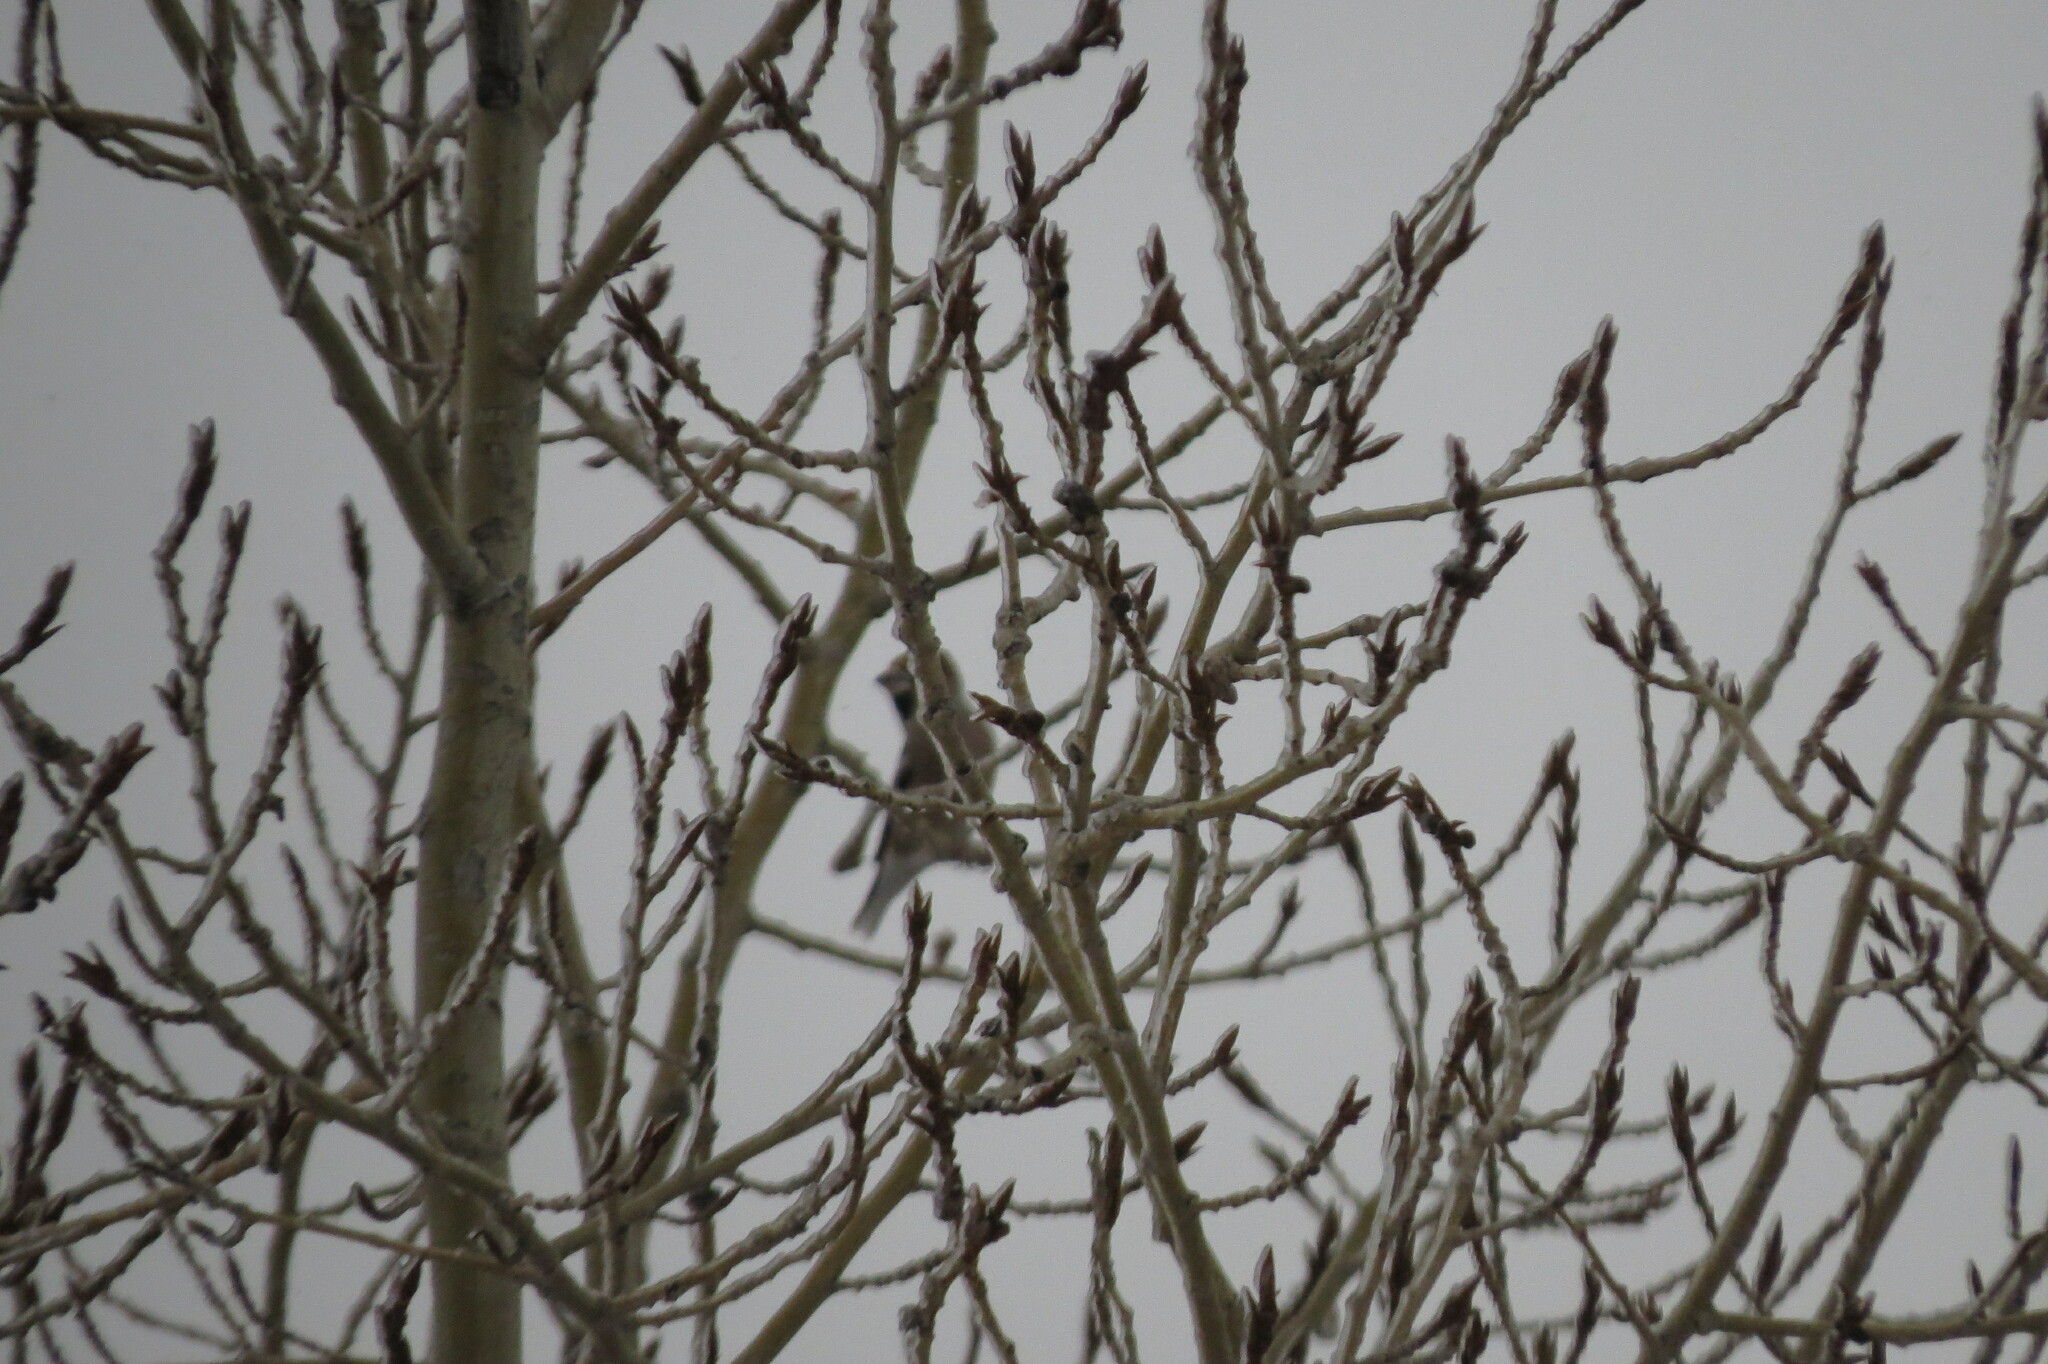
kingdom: Animalia
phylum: Chordata
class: Aves
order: Passeriformes
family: Fringillidae
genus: Coccothraustes
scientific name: Coccothraustes coccothraustes
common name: Hawfinch
